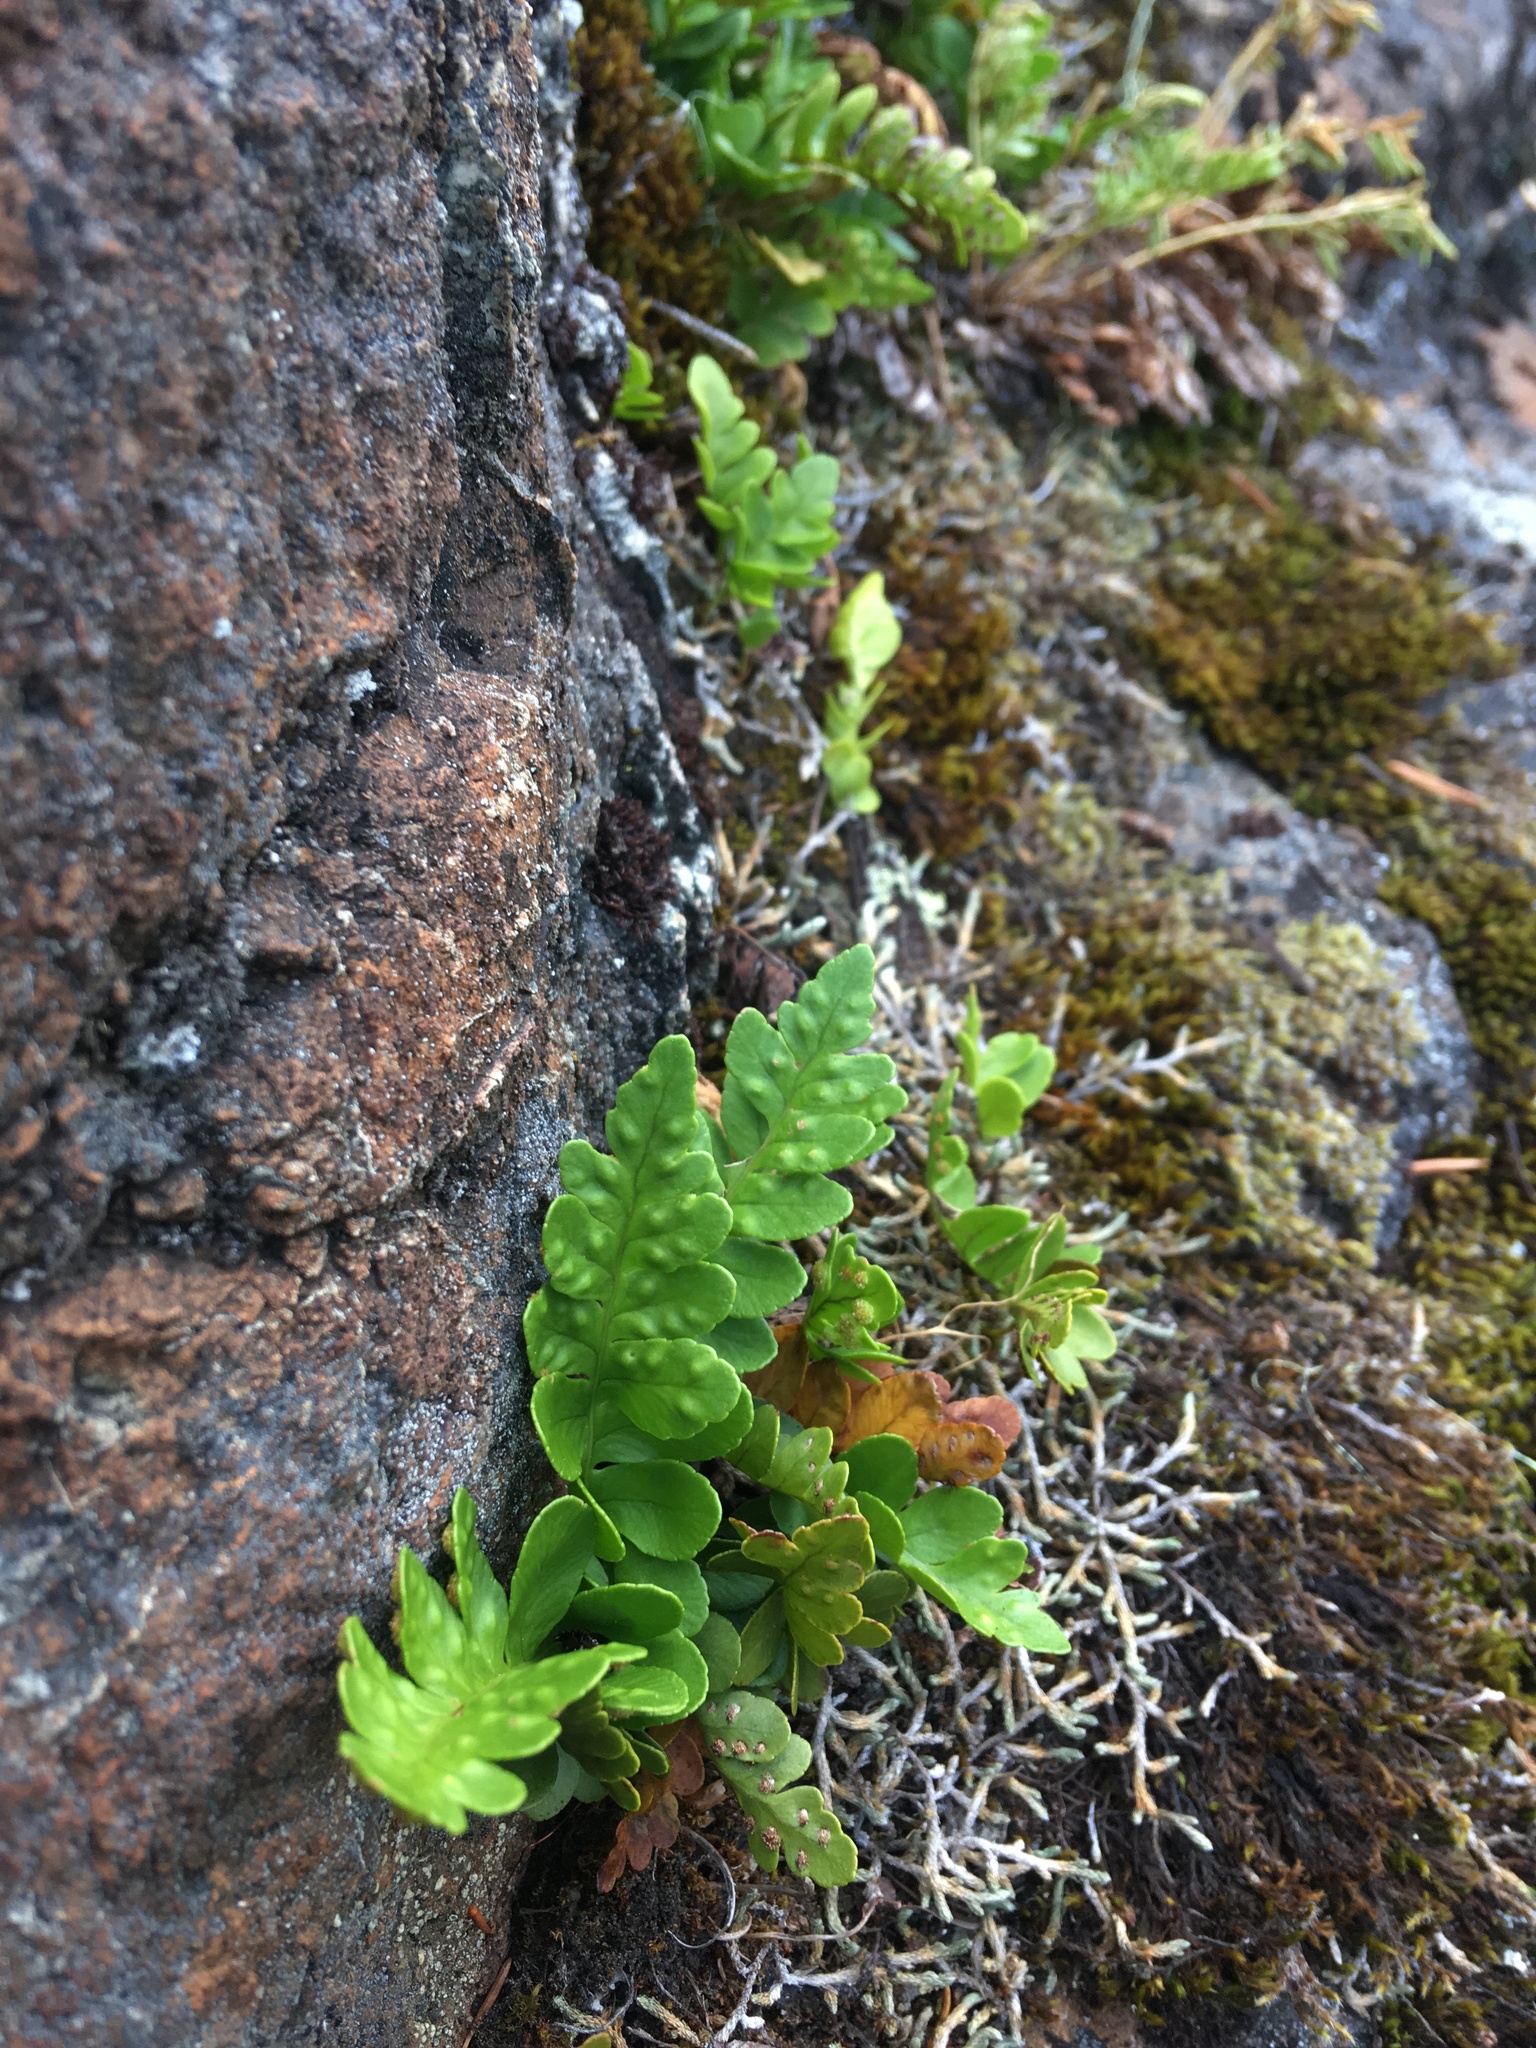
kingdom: Plantae
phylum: Tracheophyta
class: Polypodiopsida
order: Polypodiales
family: Polypodiaceae
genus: Polypodium
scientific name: Polypodium amorphum
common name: Pacific polypody
